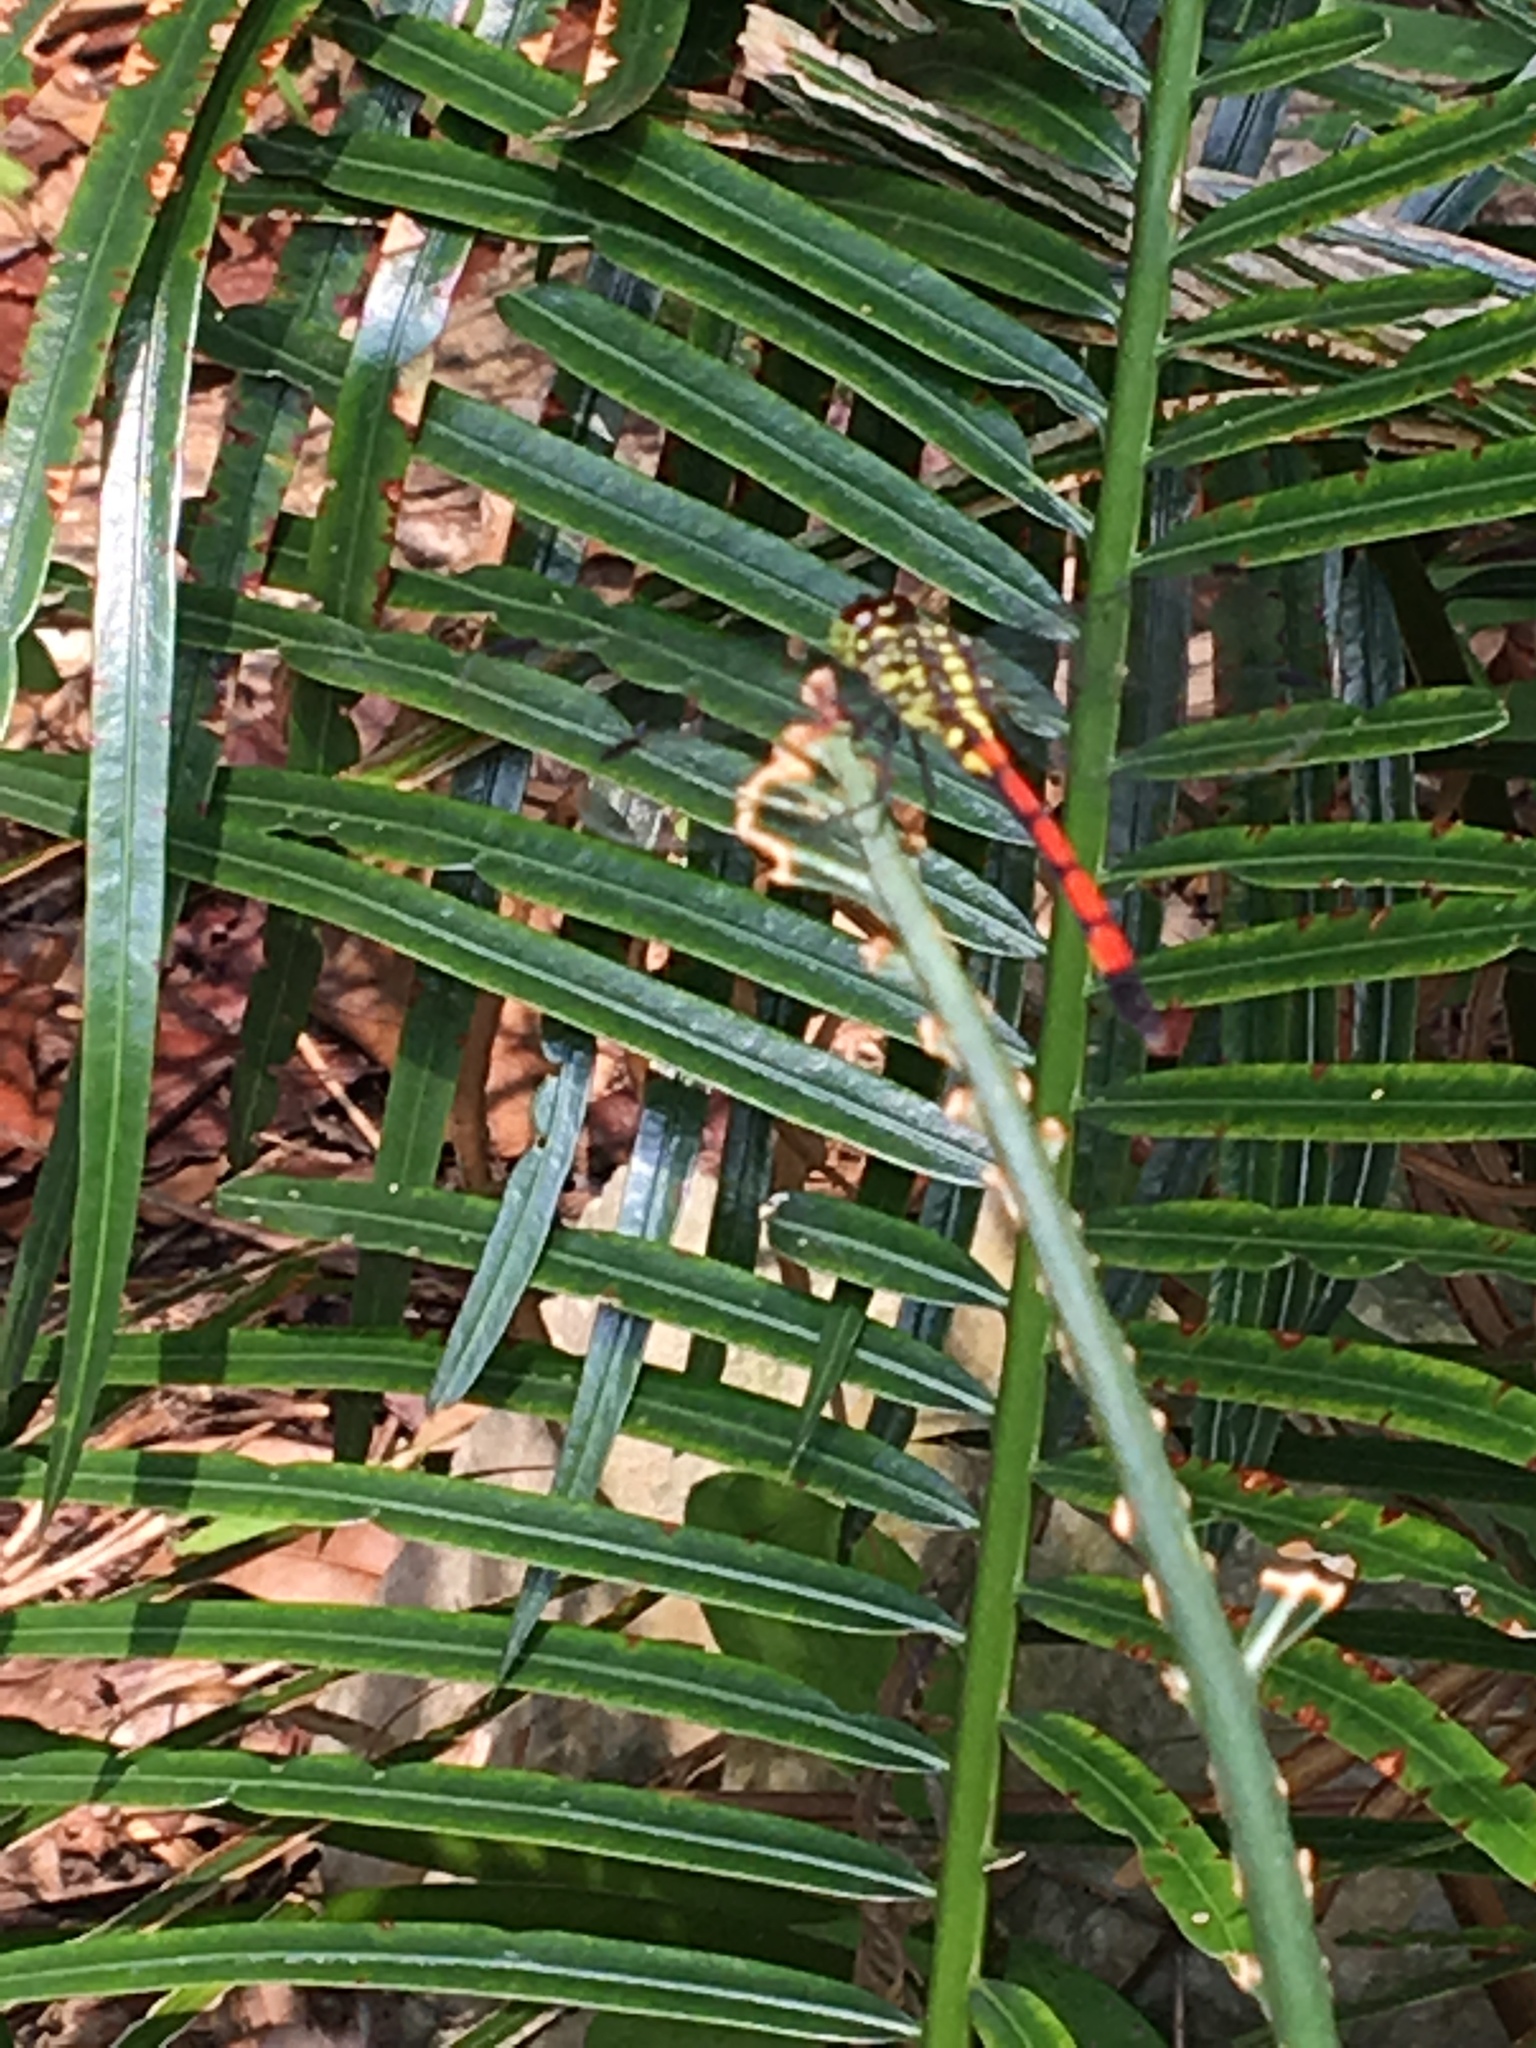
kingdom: Animalia
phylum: Arthropoda
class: Insecta
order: Odonata
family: Libellulidae
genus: Agrionoptera
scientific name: Agrionoptera insignis
